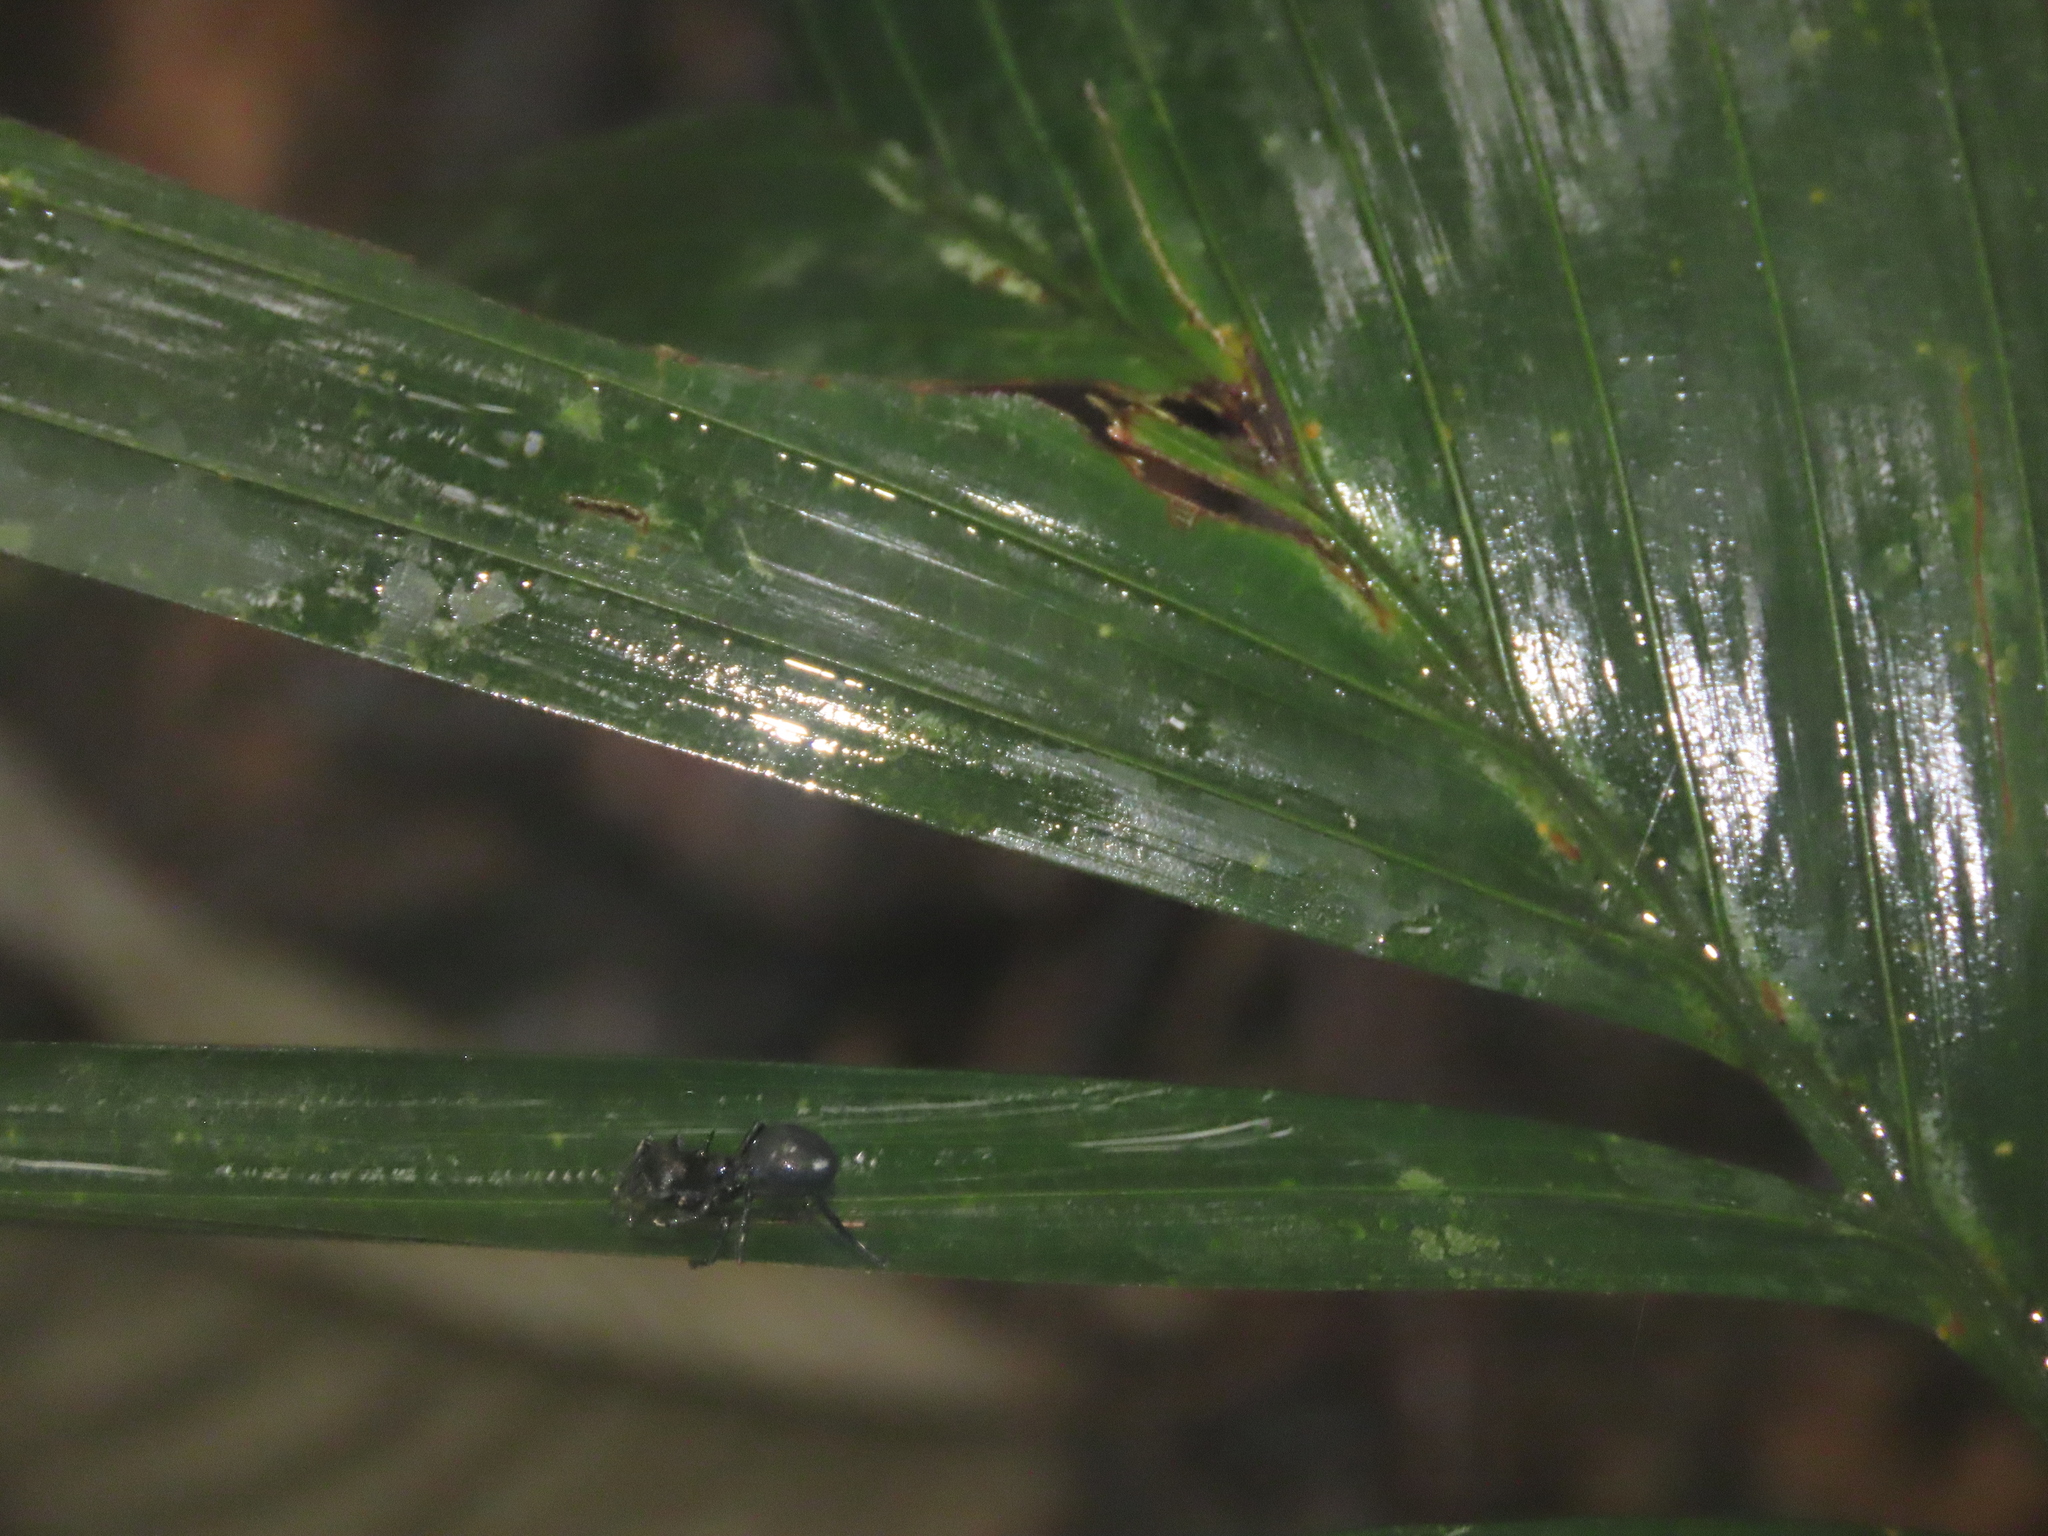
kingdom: Animalia
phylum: Arthropoda
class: Arachnida
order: Araneae
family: Thomisidae
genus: Aphantochilus
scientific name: Aphantochilus rogersi
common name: Crab spiders
